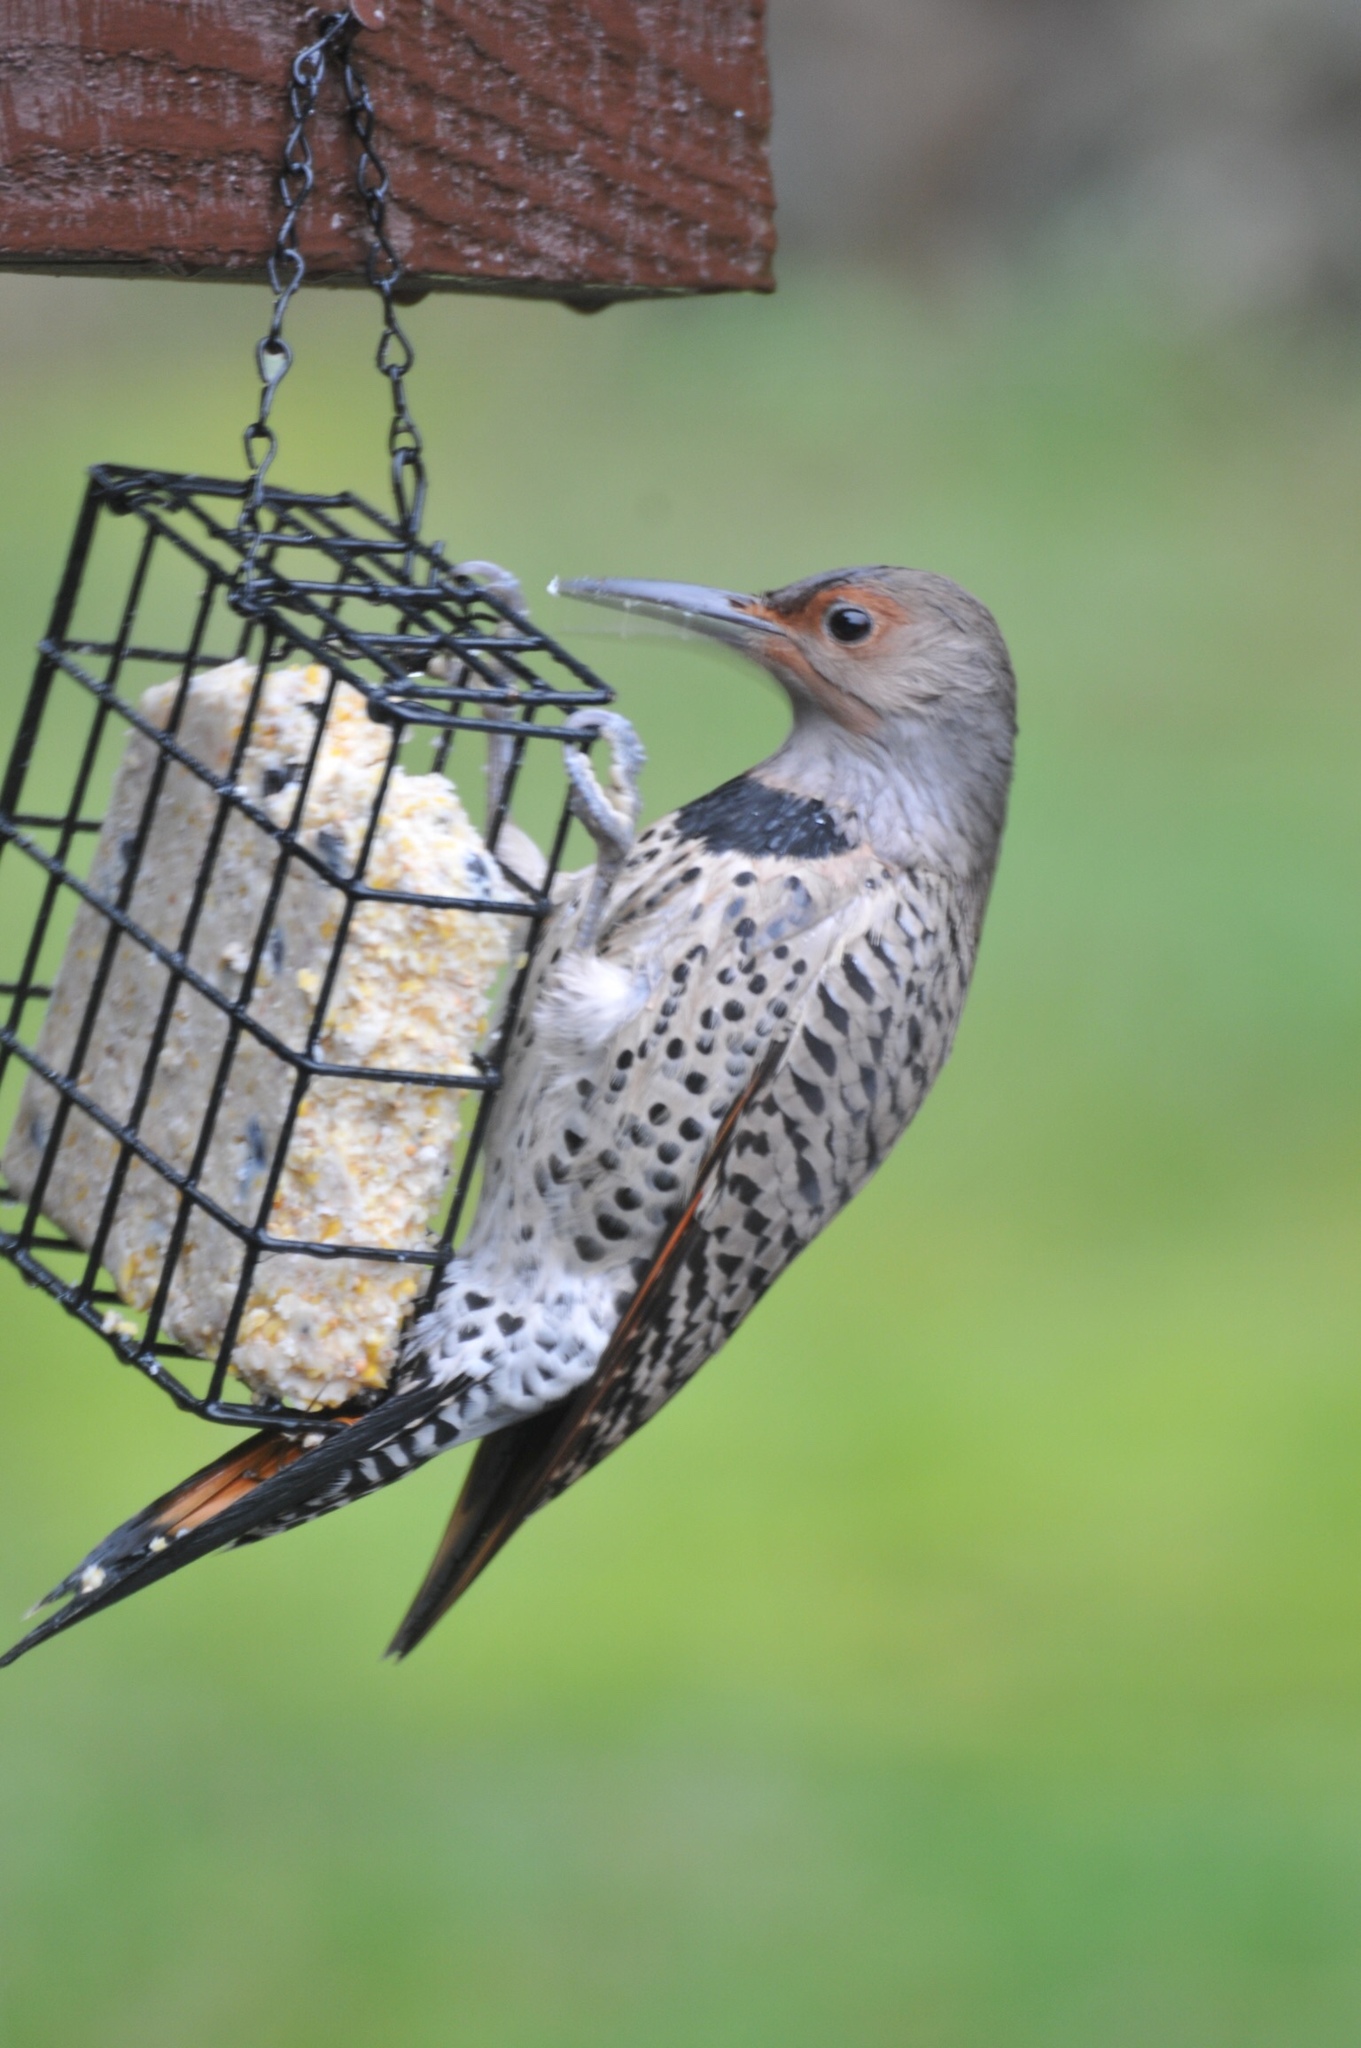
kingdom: Animalia
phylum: Chordata
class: Aves
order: Piciformes
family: Picidae
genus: Colaptes
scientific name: Colaptes auratus
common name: Northern flicker
